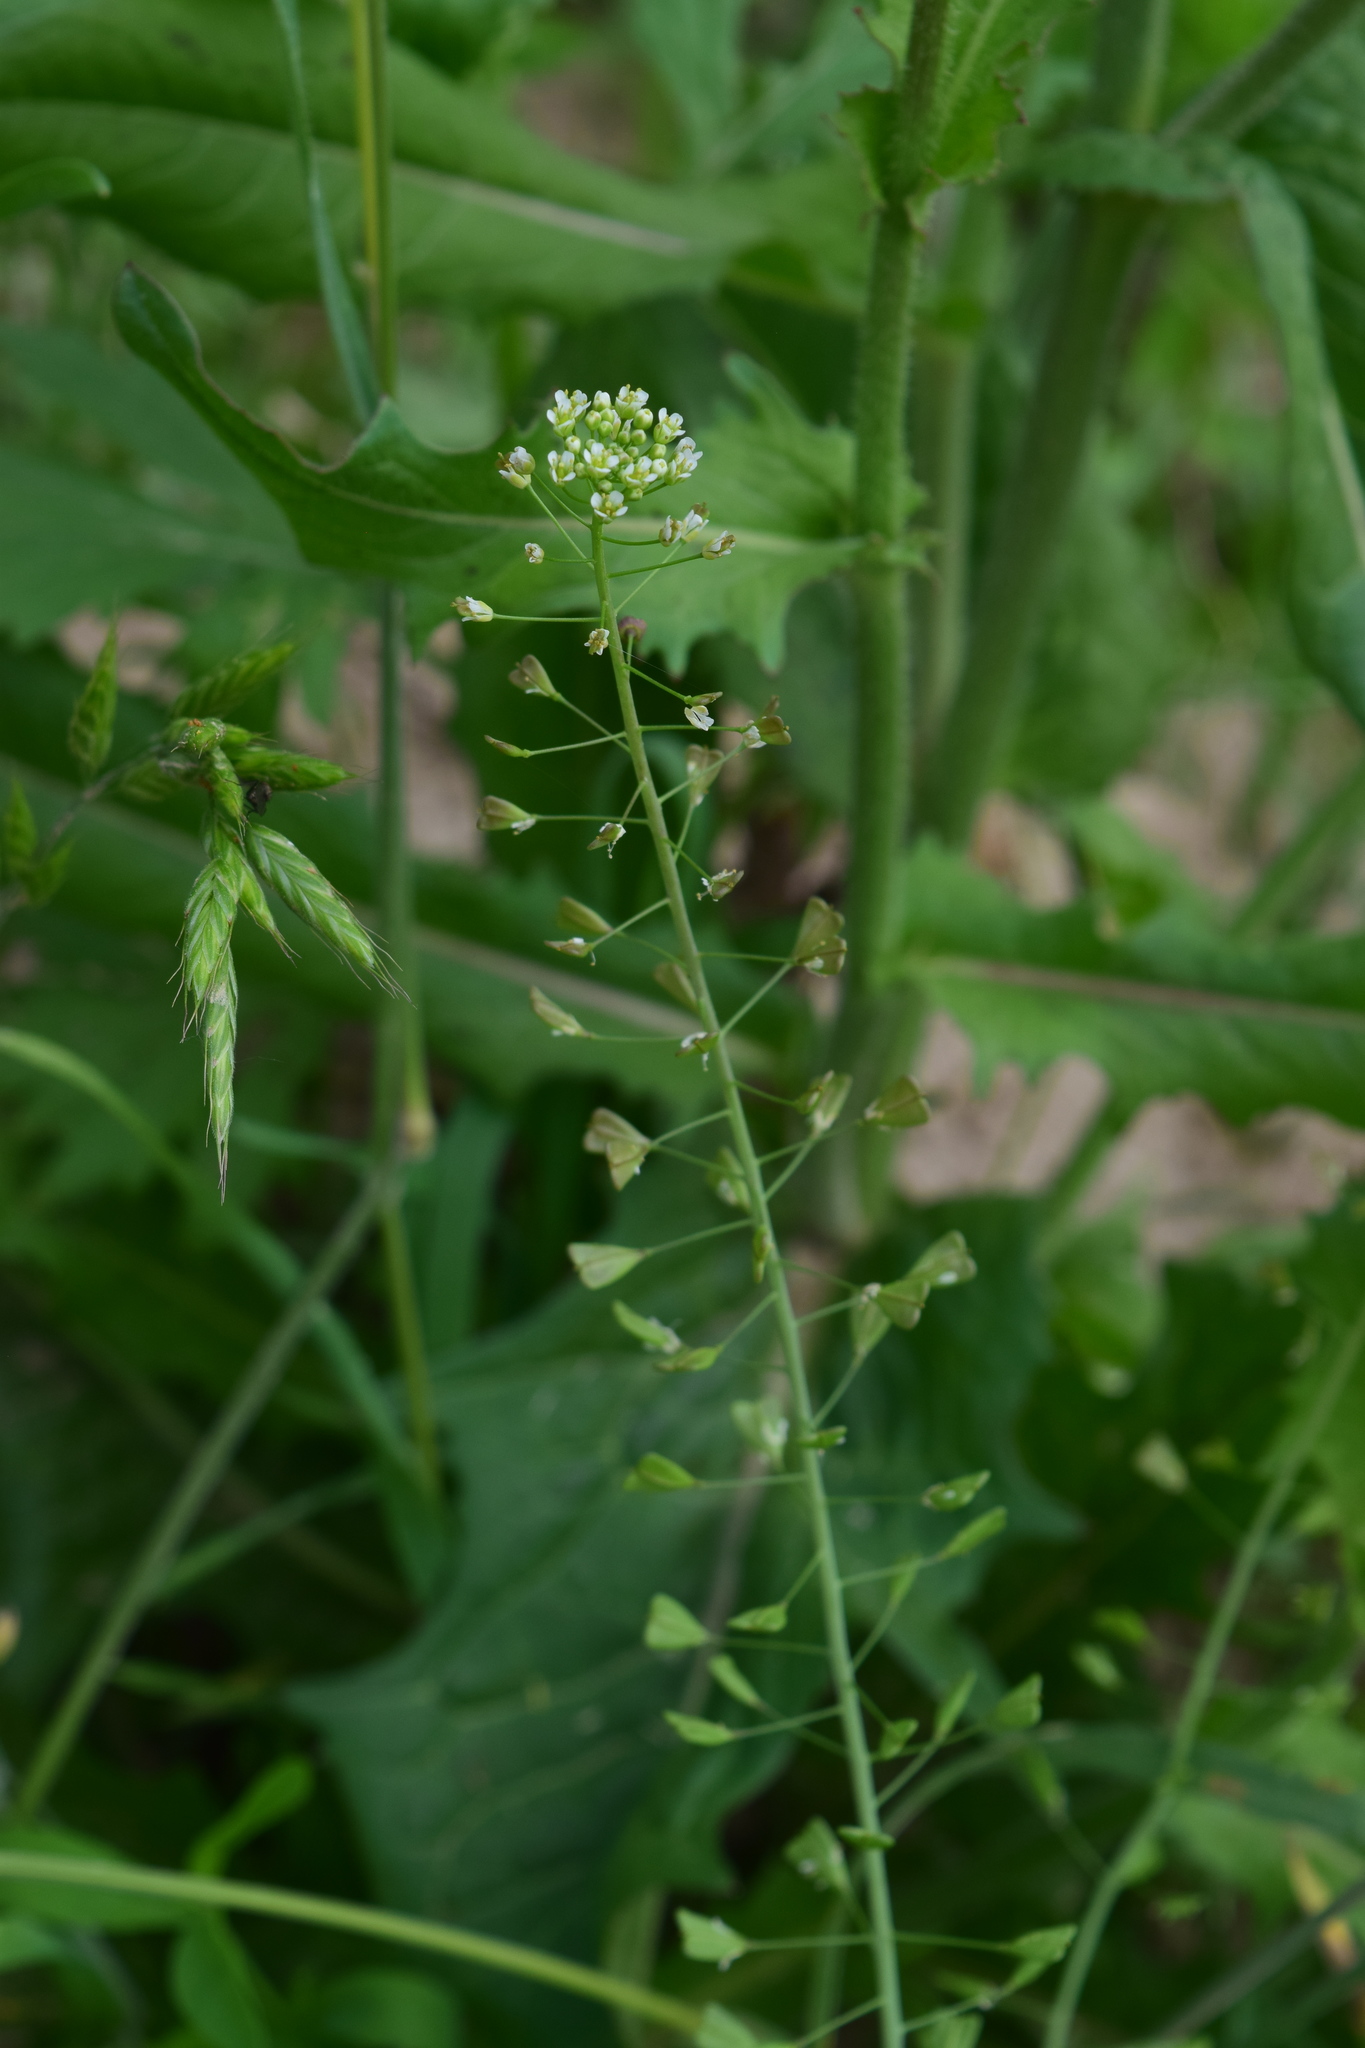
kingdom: Plantae
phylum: Tracheophyta
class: Magnoliopsida
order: Brassicales
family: Brassicaceae
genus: Capsella
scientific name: Capsella bursa-pastoris
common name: Shepherd's purse
